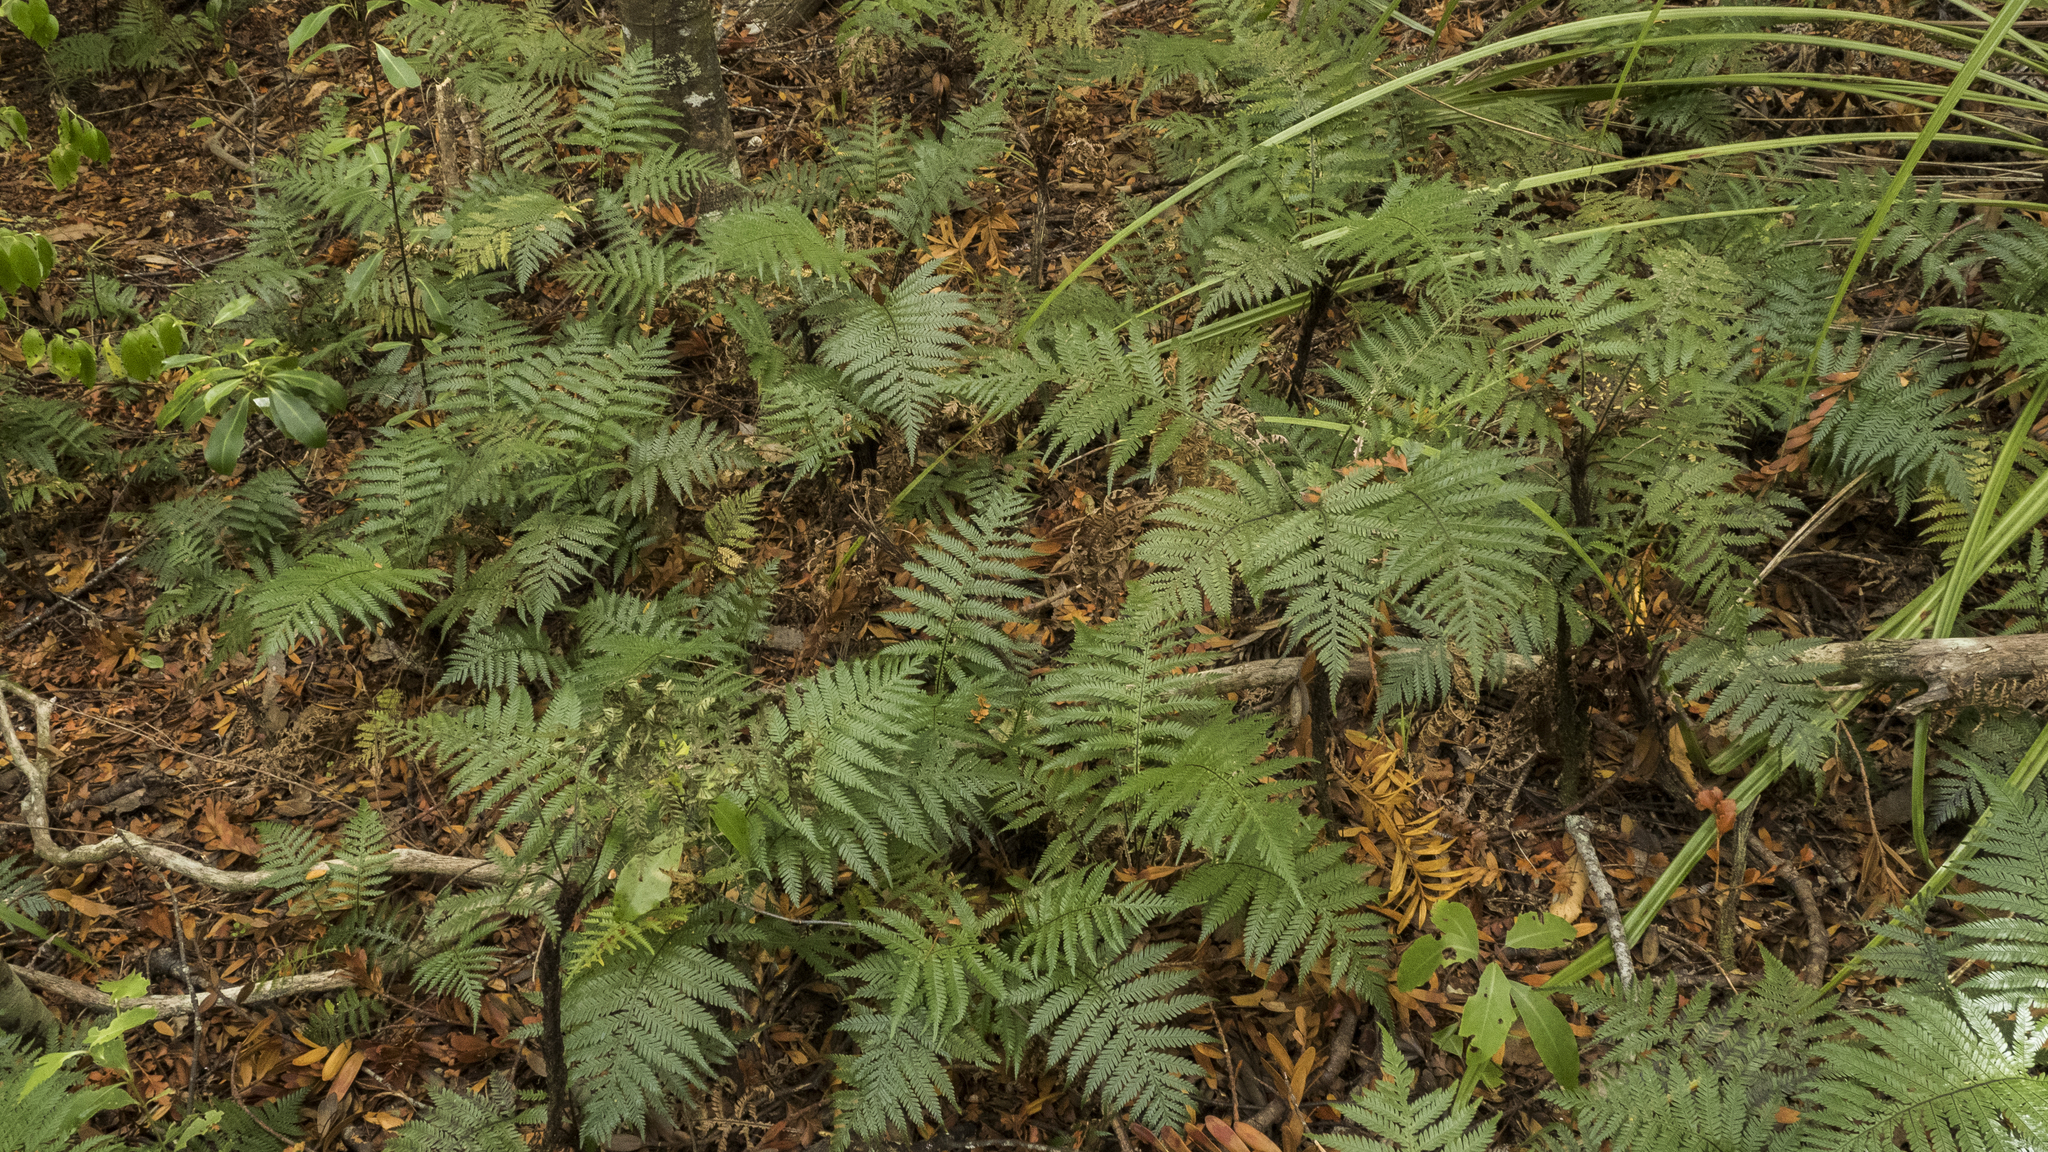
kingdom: Plantae
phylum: Tracheophyta
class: Polypodiopsida
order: Polypodiales
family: Blechnaceae
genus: Diploblechnum
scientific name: Diploblechnum fraseri
